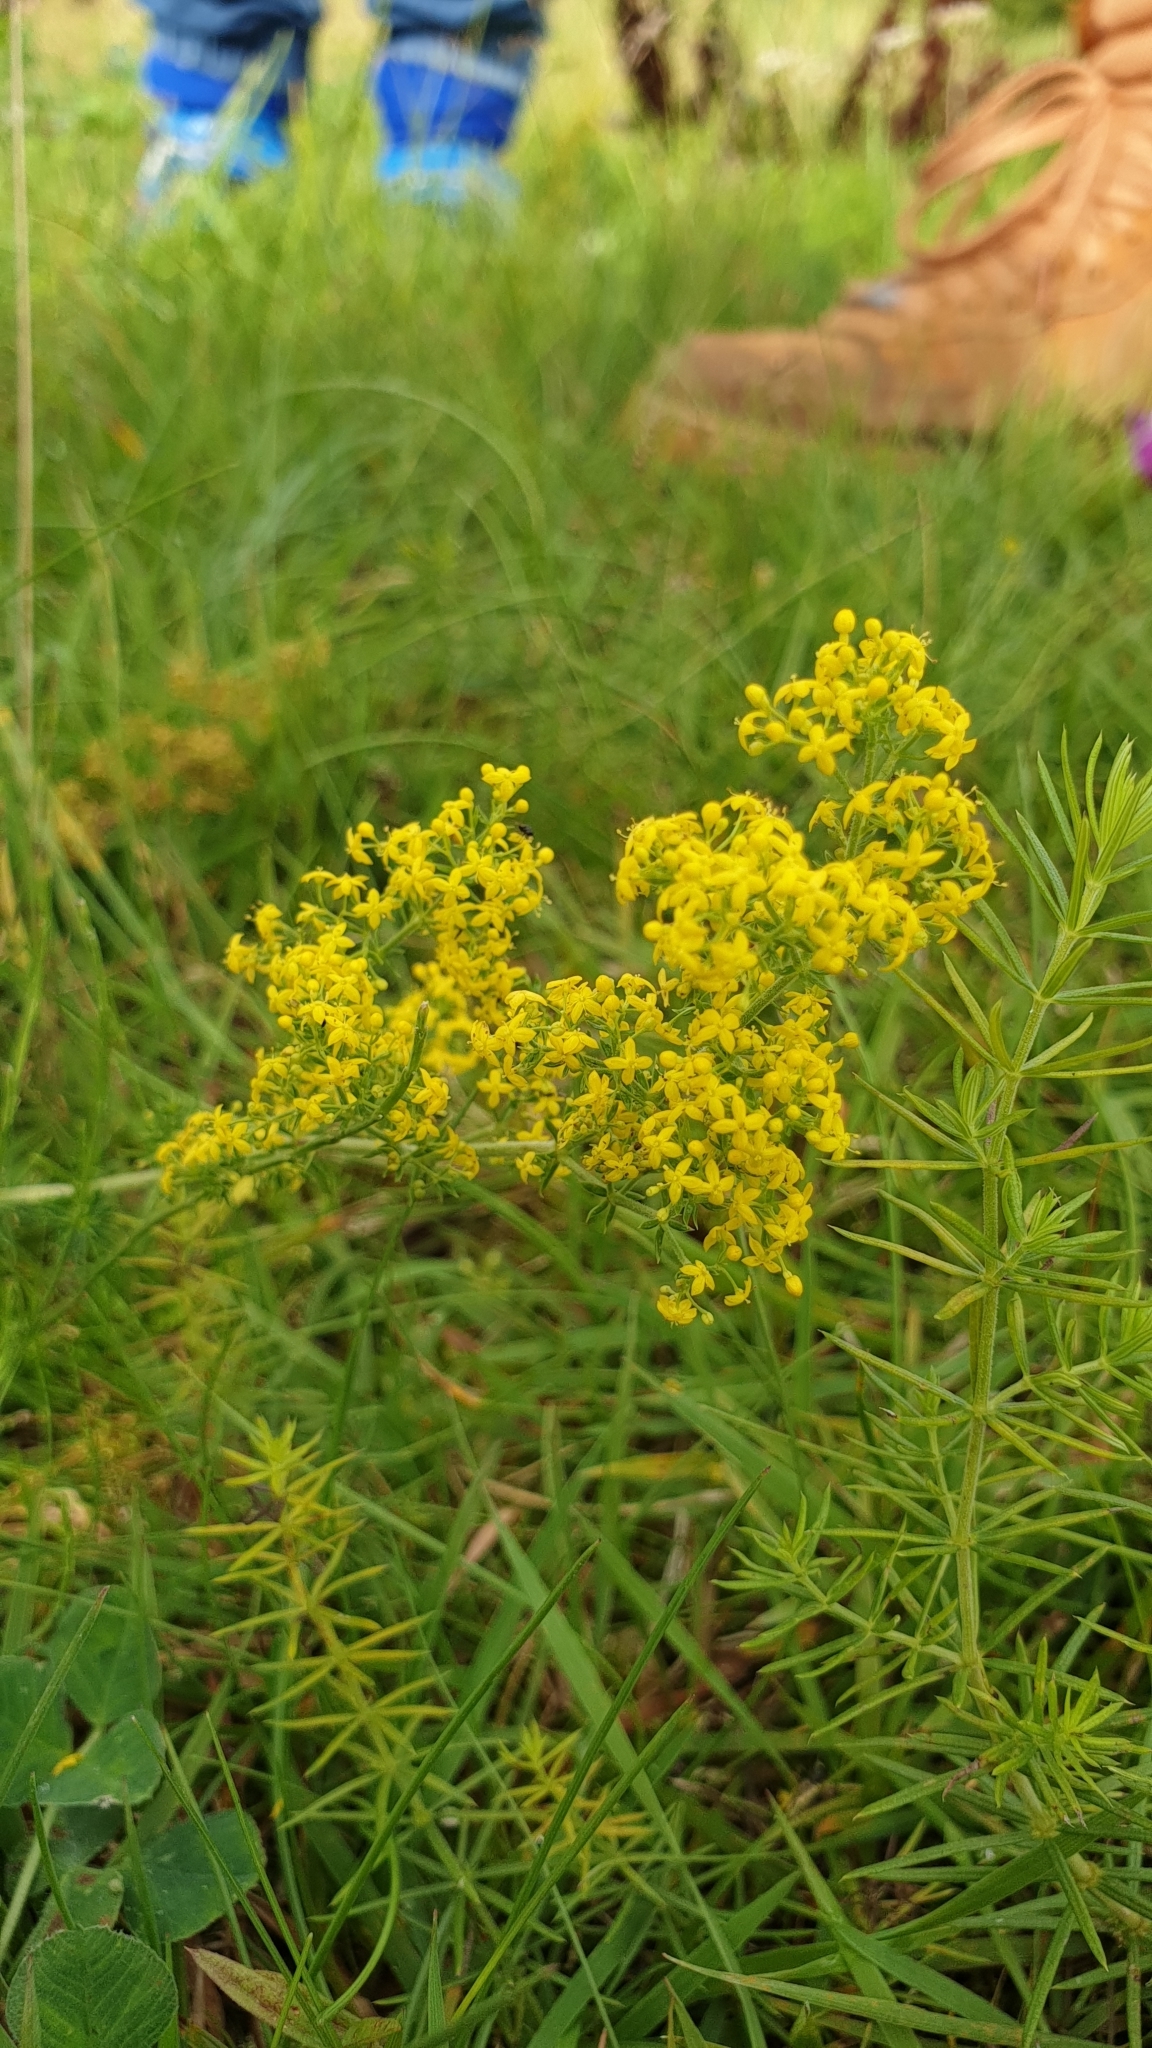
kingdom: Plantae
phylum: Tracheophyta
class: Magnoliopsida
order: Gentianales
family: Rubiaceae
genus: Galium
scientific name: Galium verum
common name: Lady's bedstraw
